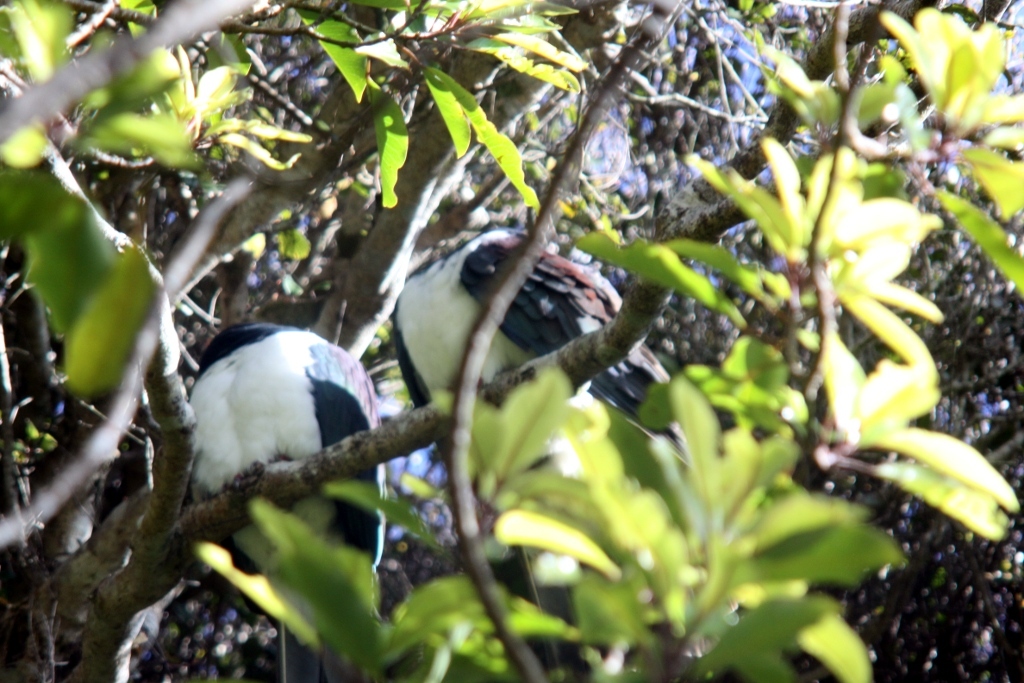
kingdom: Animalia
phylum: Chordata
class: Aves
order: Columbiformes
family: Columbidae
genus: Hemiphaga
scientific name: Hemiphaga novaeseelandiae
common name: New zealand pigeon
